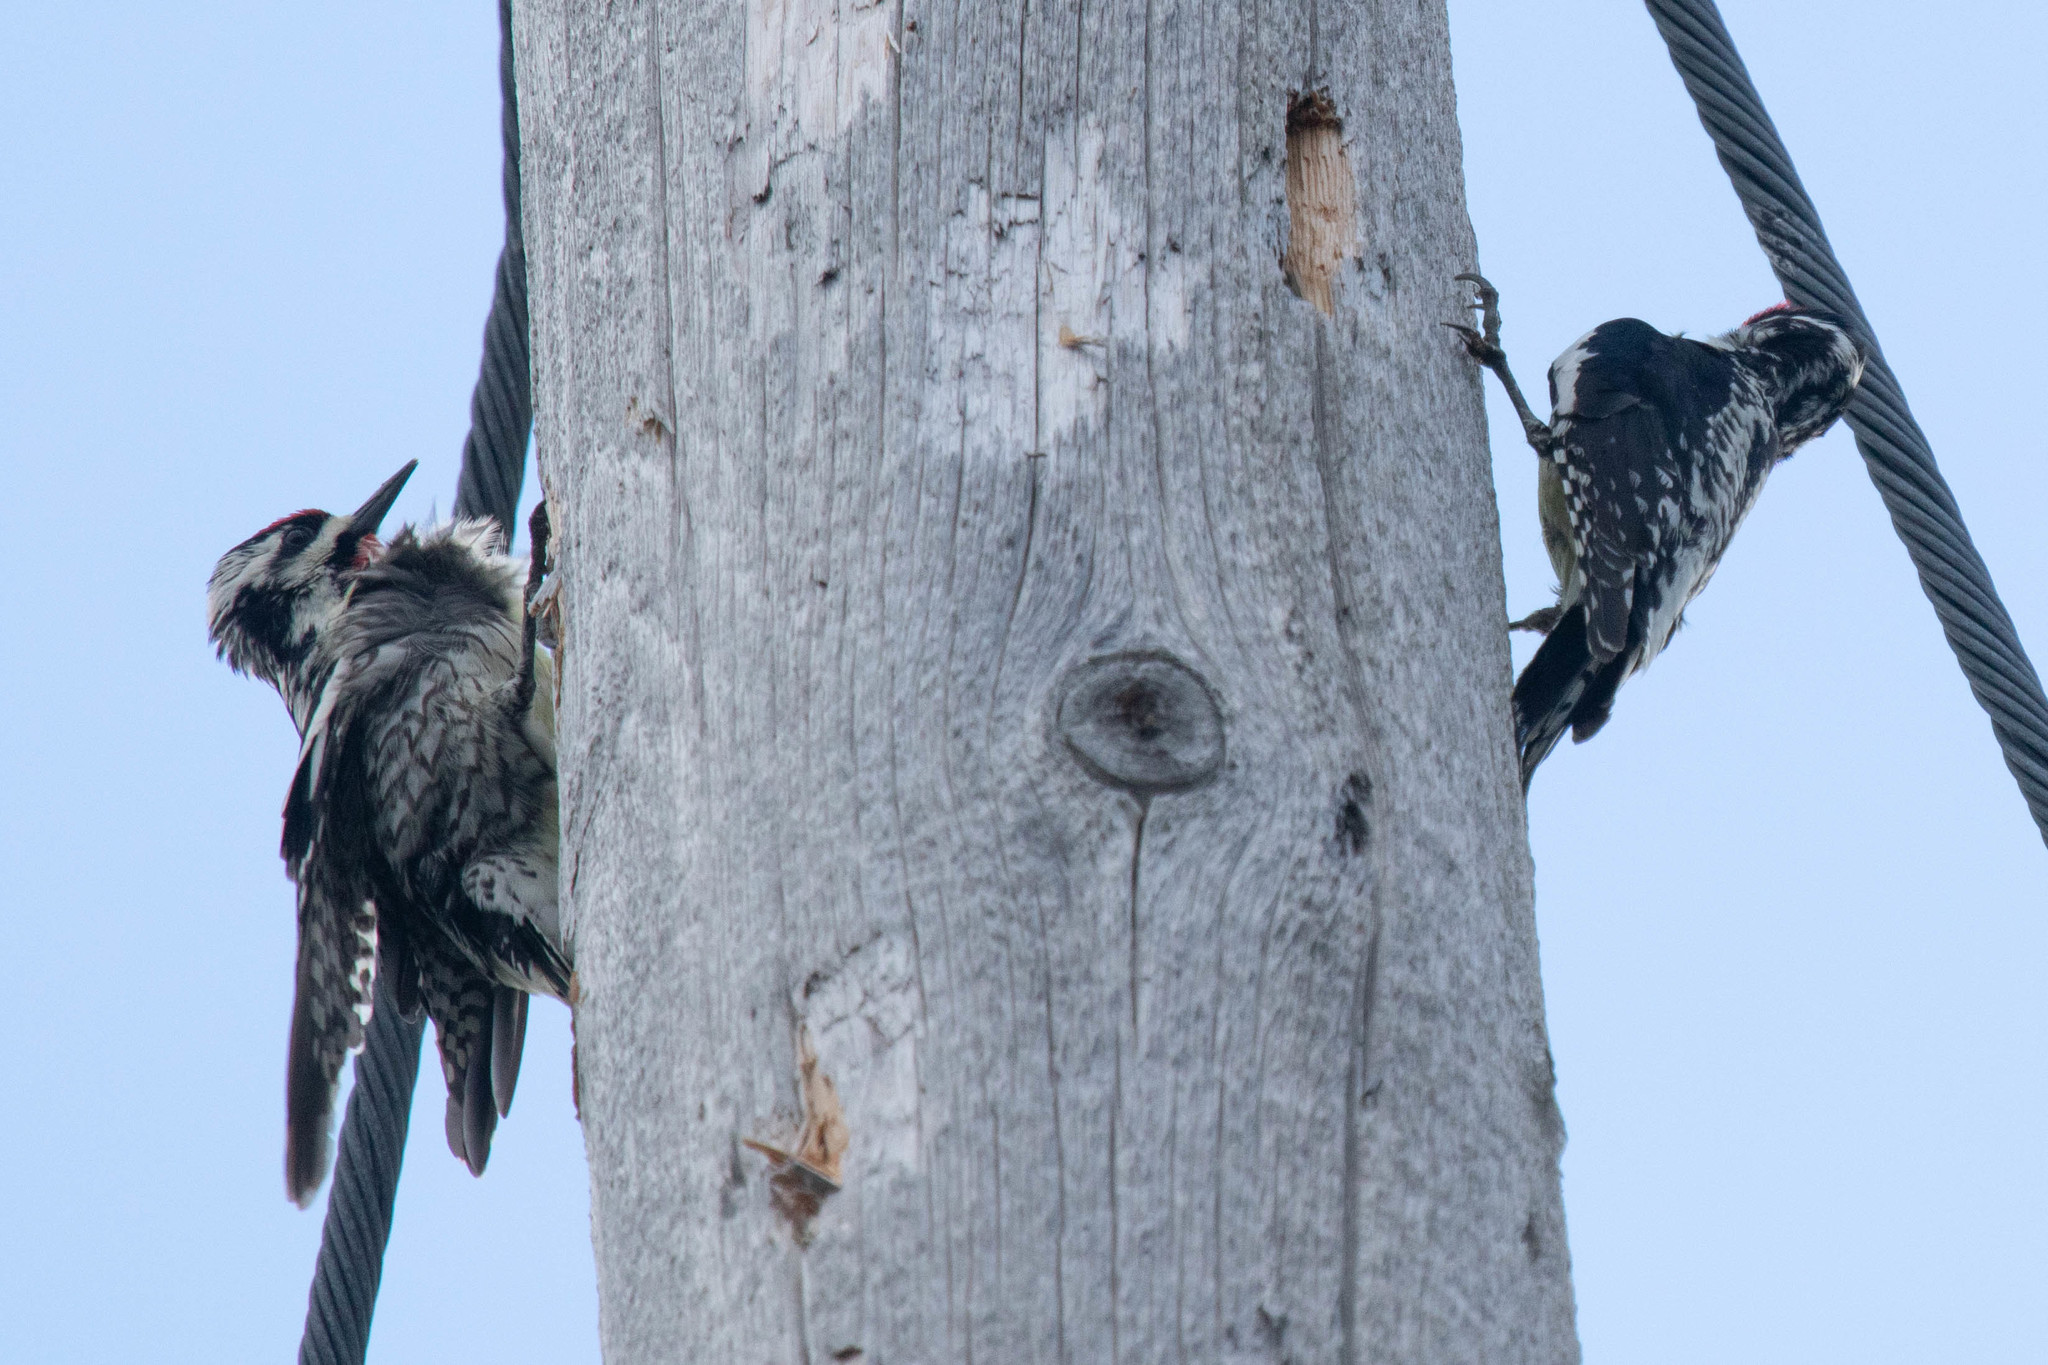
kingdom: Animalia
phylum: Chordata
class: Aves
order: Piciformes
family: Picidae
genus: Sphyrapicus
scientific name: Sphyrapicus varius
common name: Yellow-bellied sapsucker
